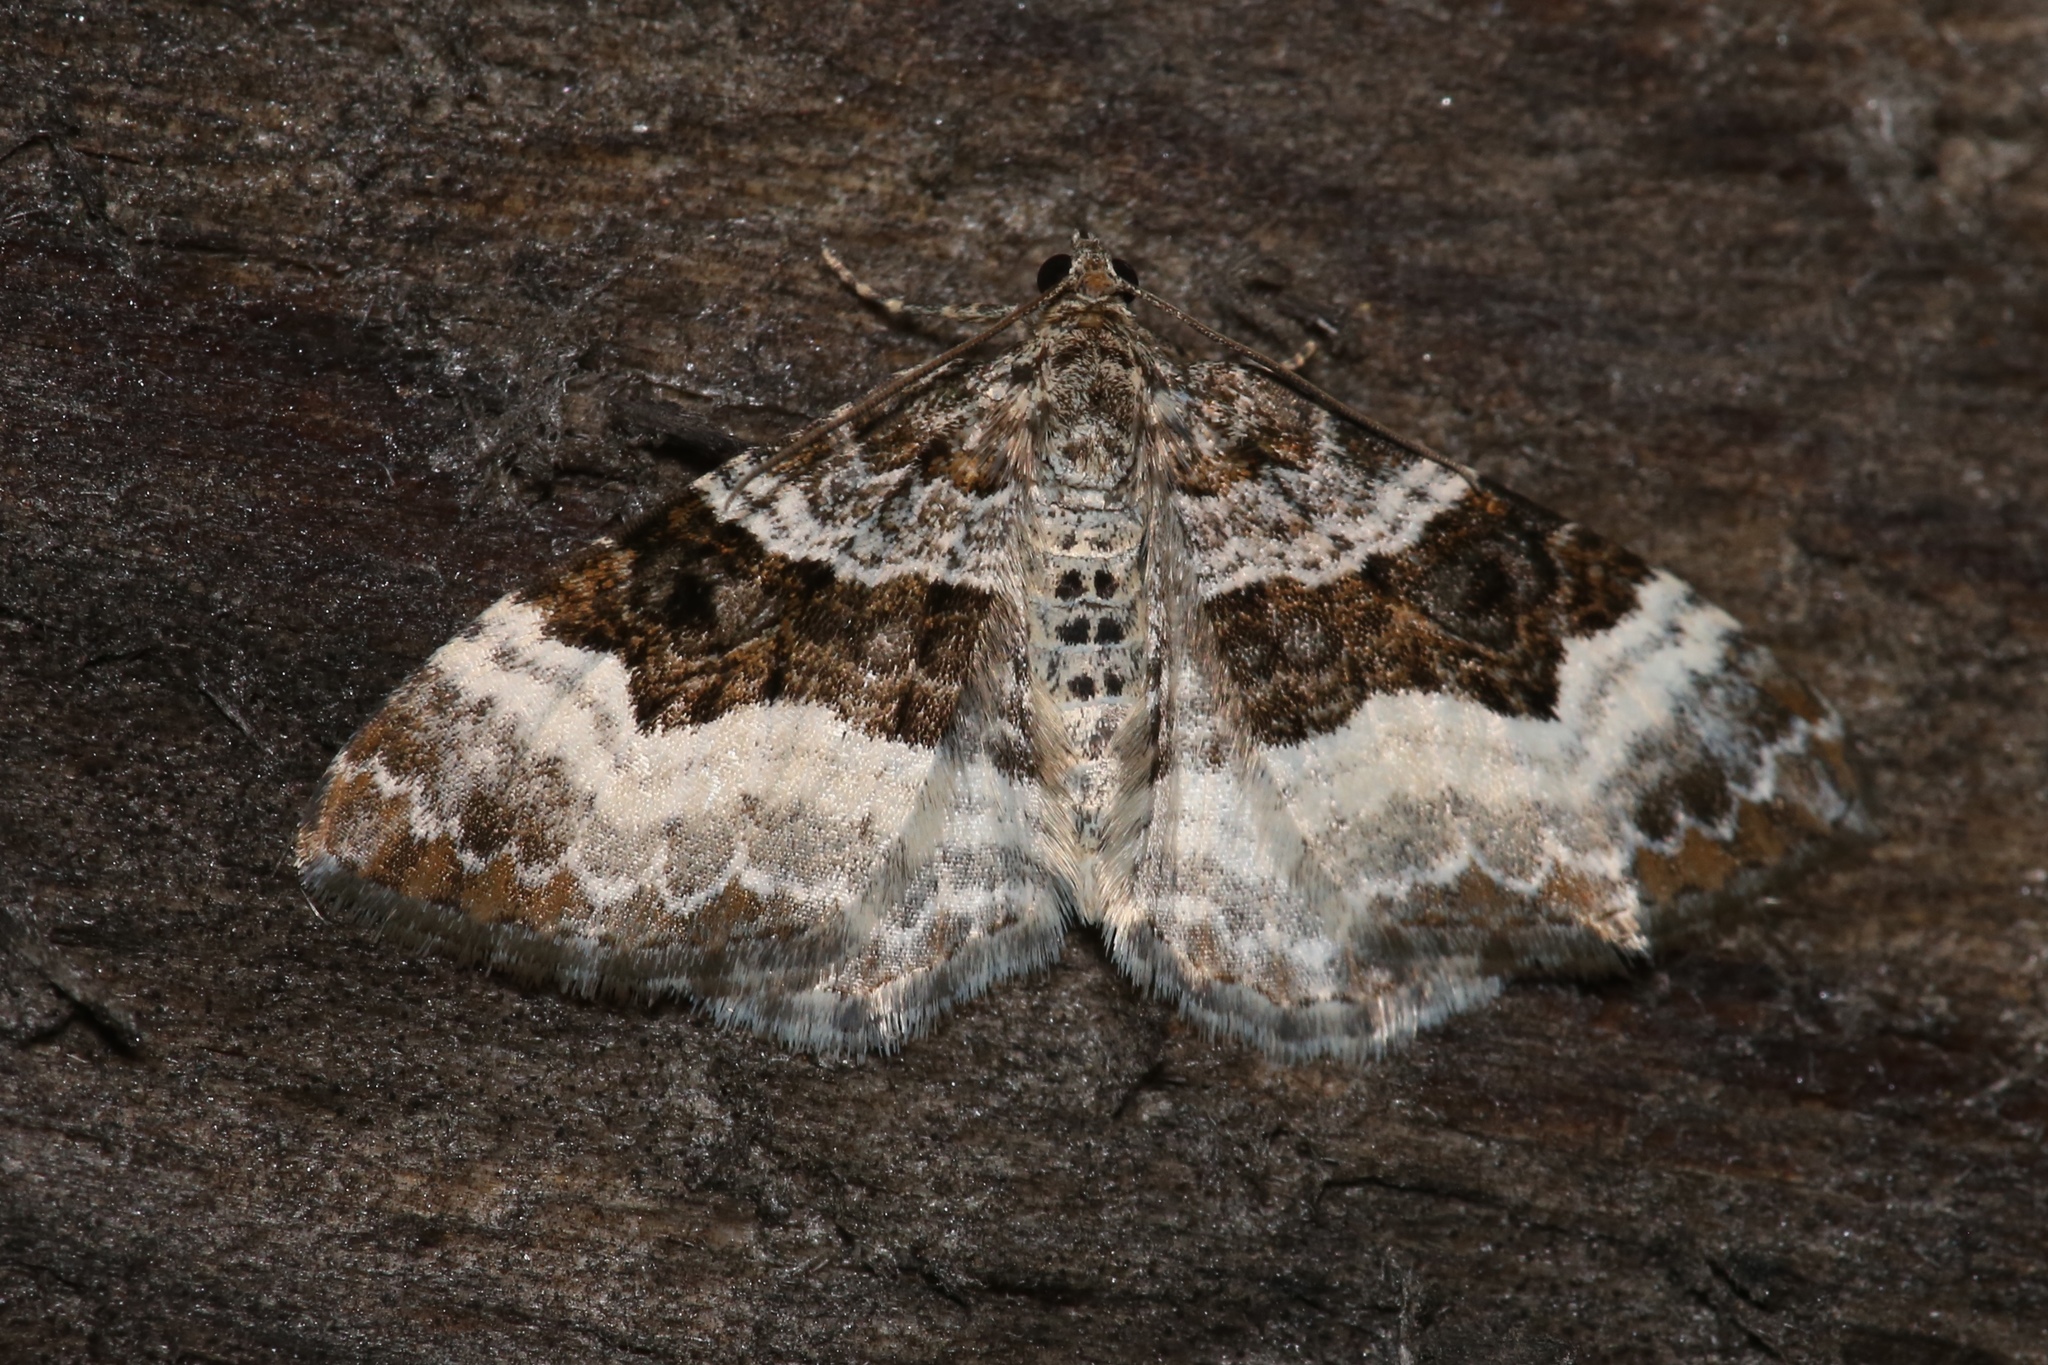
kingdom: Animalia
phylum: Arthropoda
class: Insecta
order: Lepidoptera
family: Geometridae
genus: Epirrhoe
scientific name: Epirrhoe alternata
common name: Common carpet
